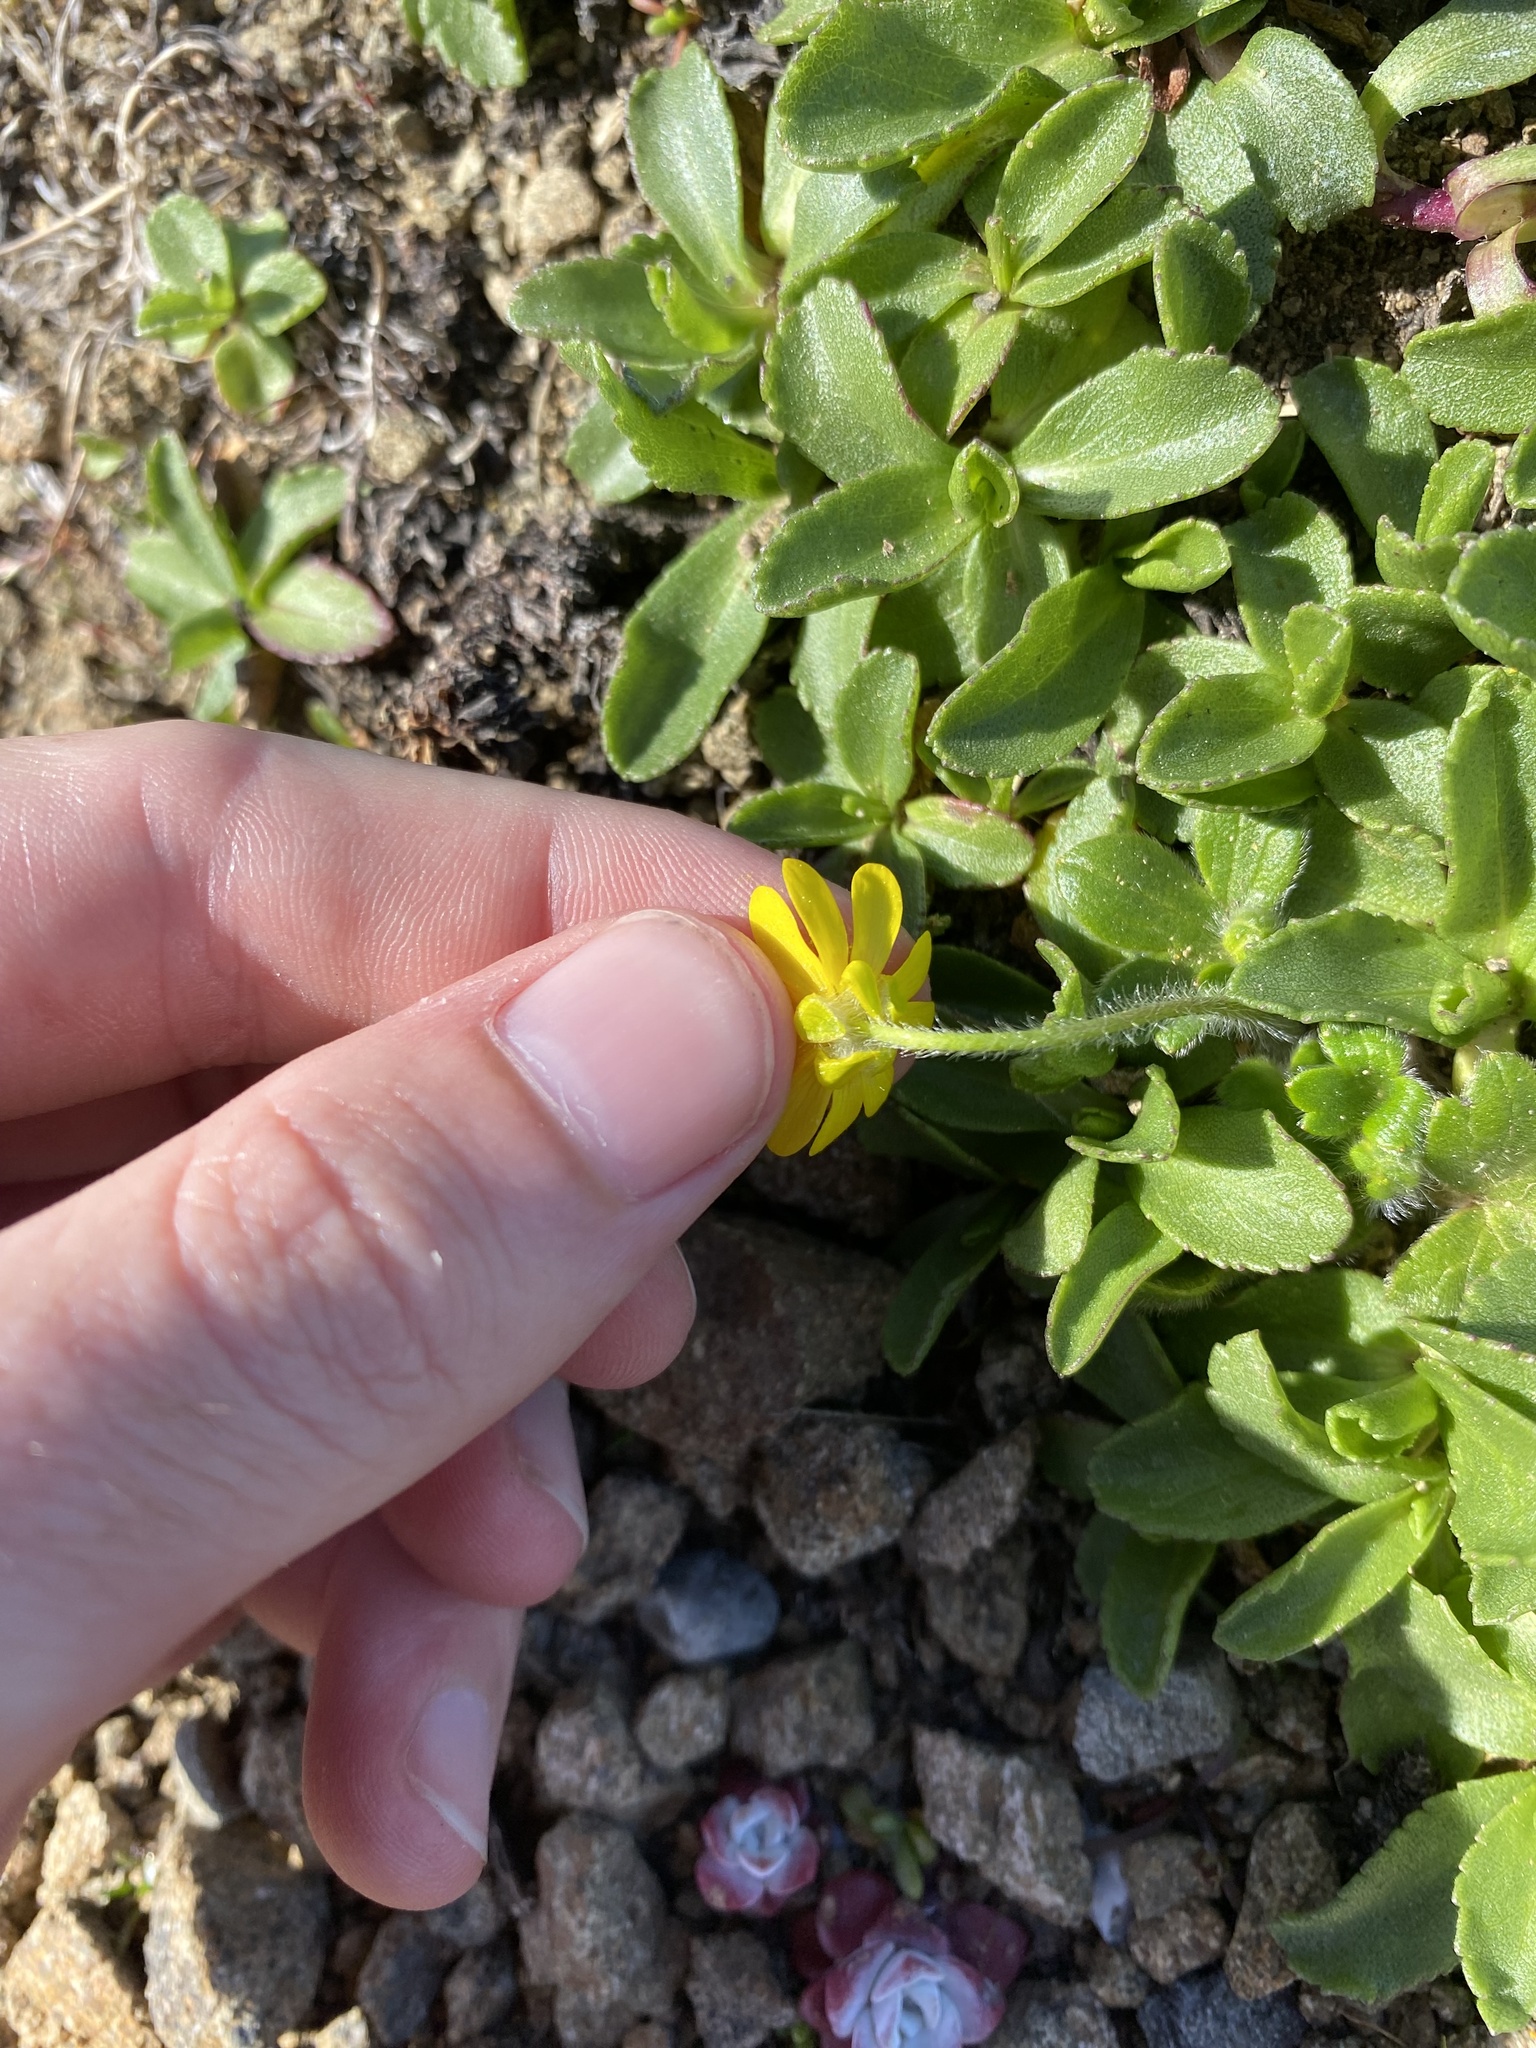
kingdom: Plantae
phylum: Tracheophyta
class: Magnoliopsida
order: Ranunculales
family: Ranunculaceae
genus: Ranunculus
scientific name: Ranunculus californicus
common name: California buttercup
